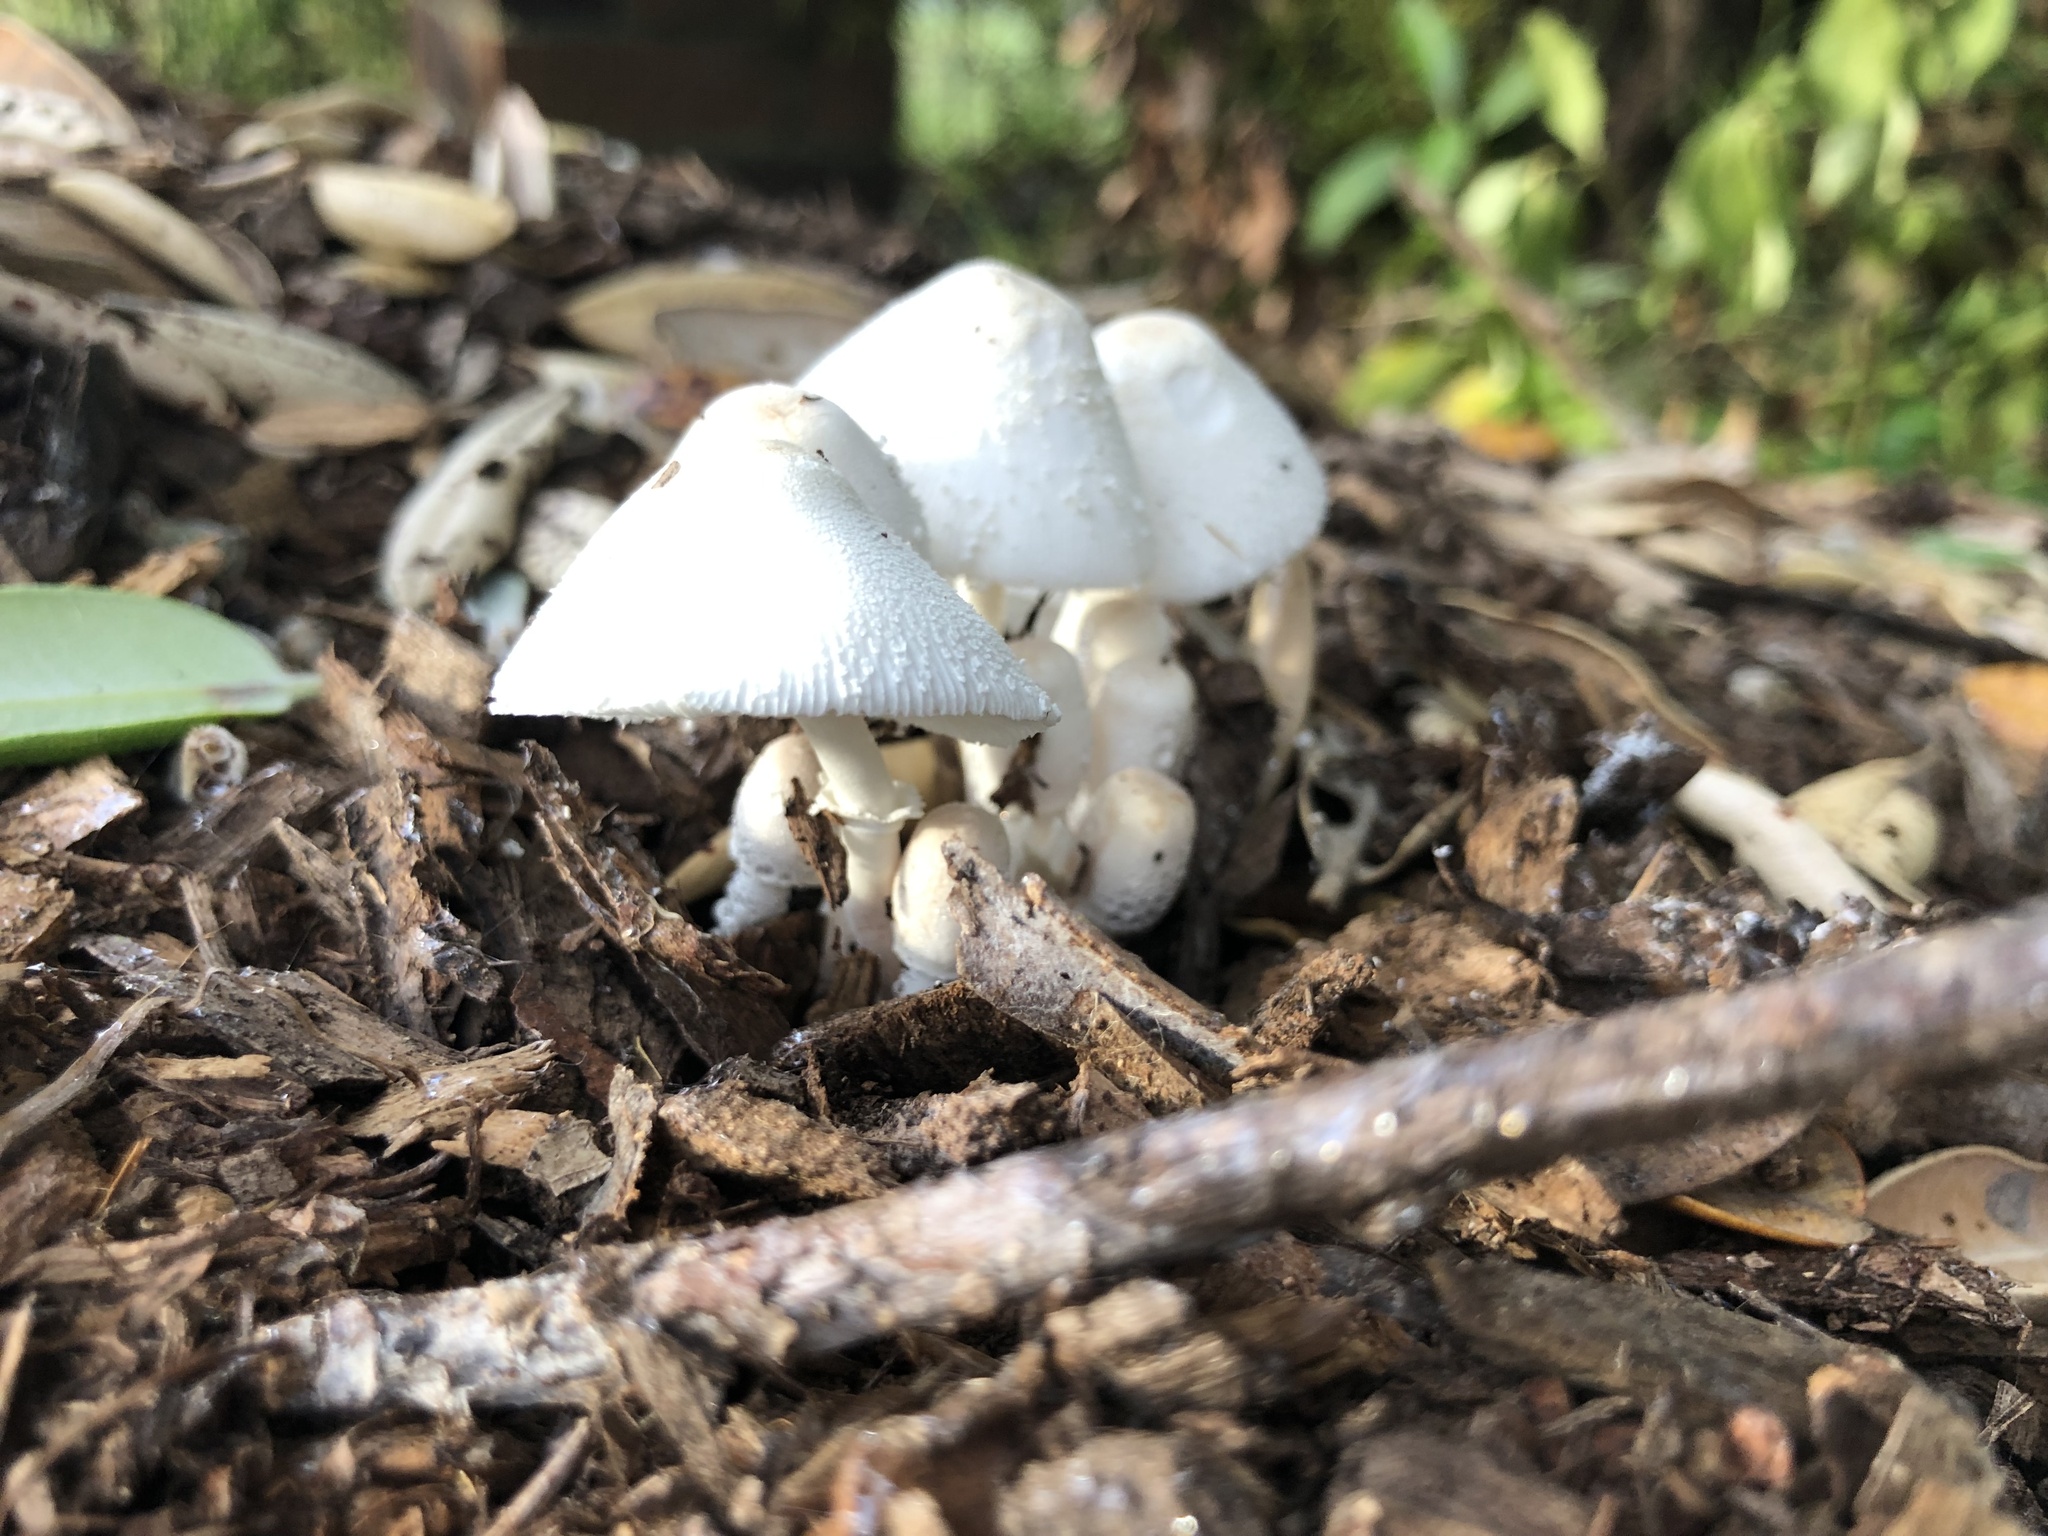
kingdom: Fungi
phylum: Basidiomycota
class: Agaricomycetes
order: Agaricales
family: Agaricaceae
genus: Leucocoprinus
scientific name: Leucocoprinus cepistipes
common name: Onion-stalk parasol
